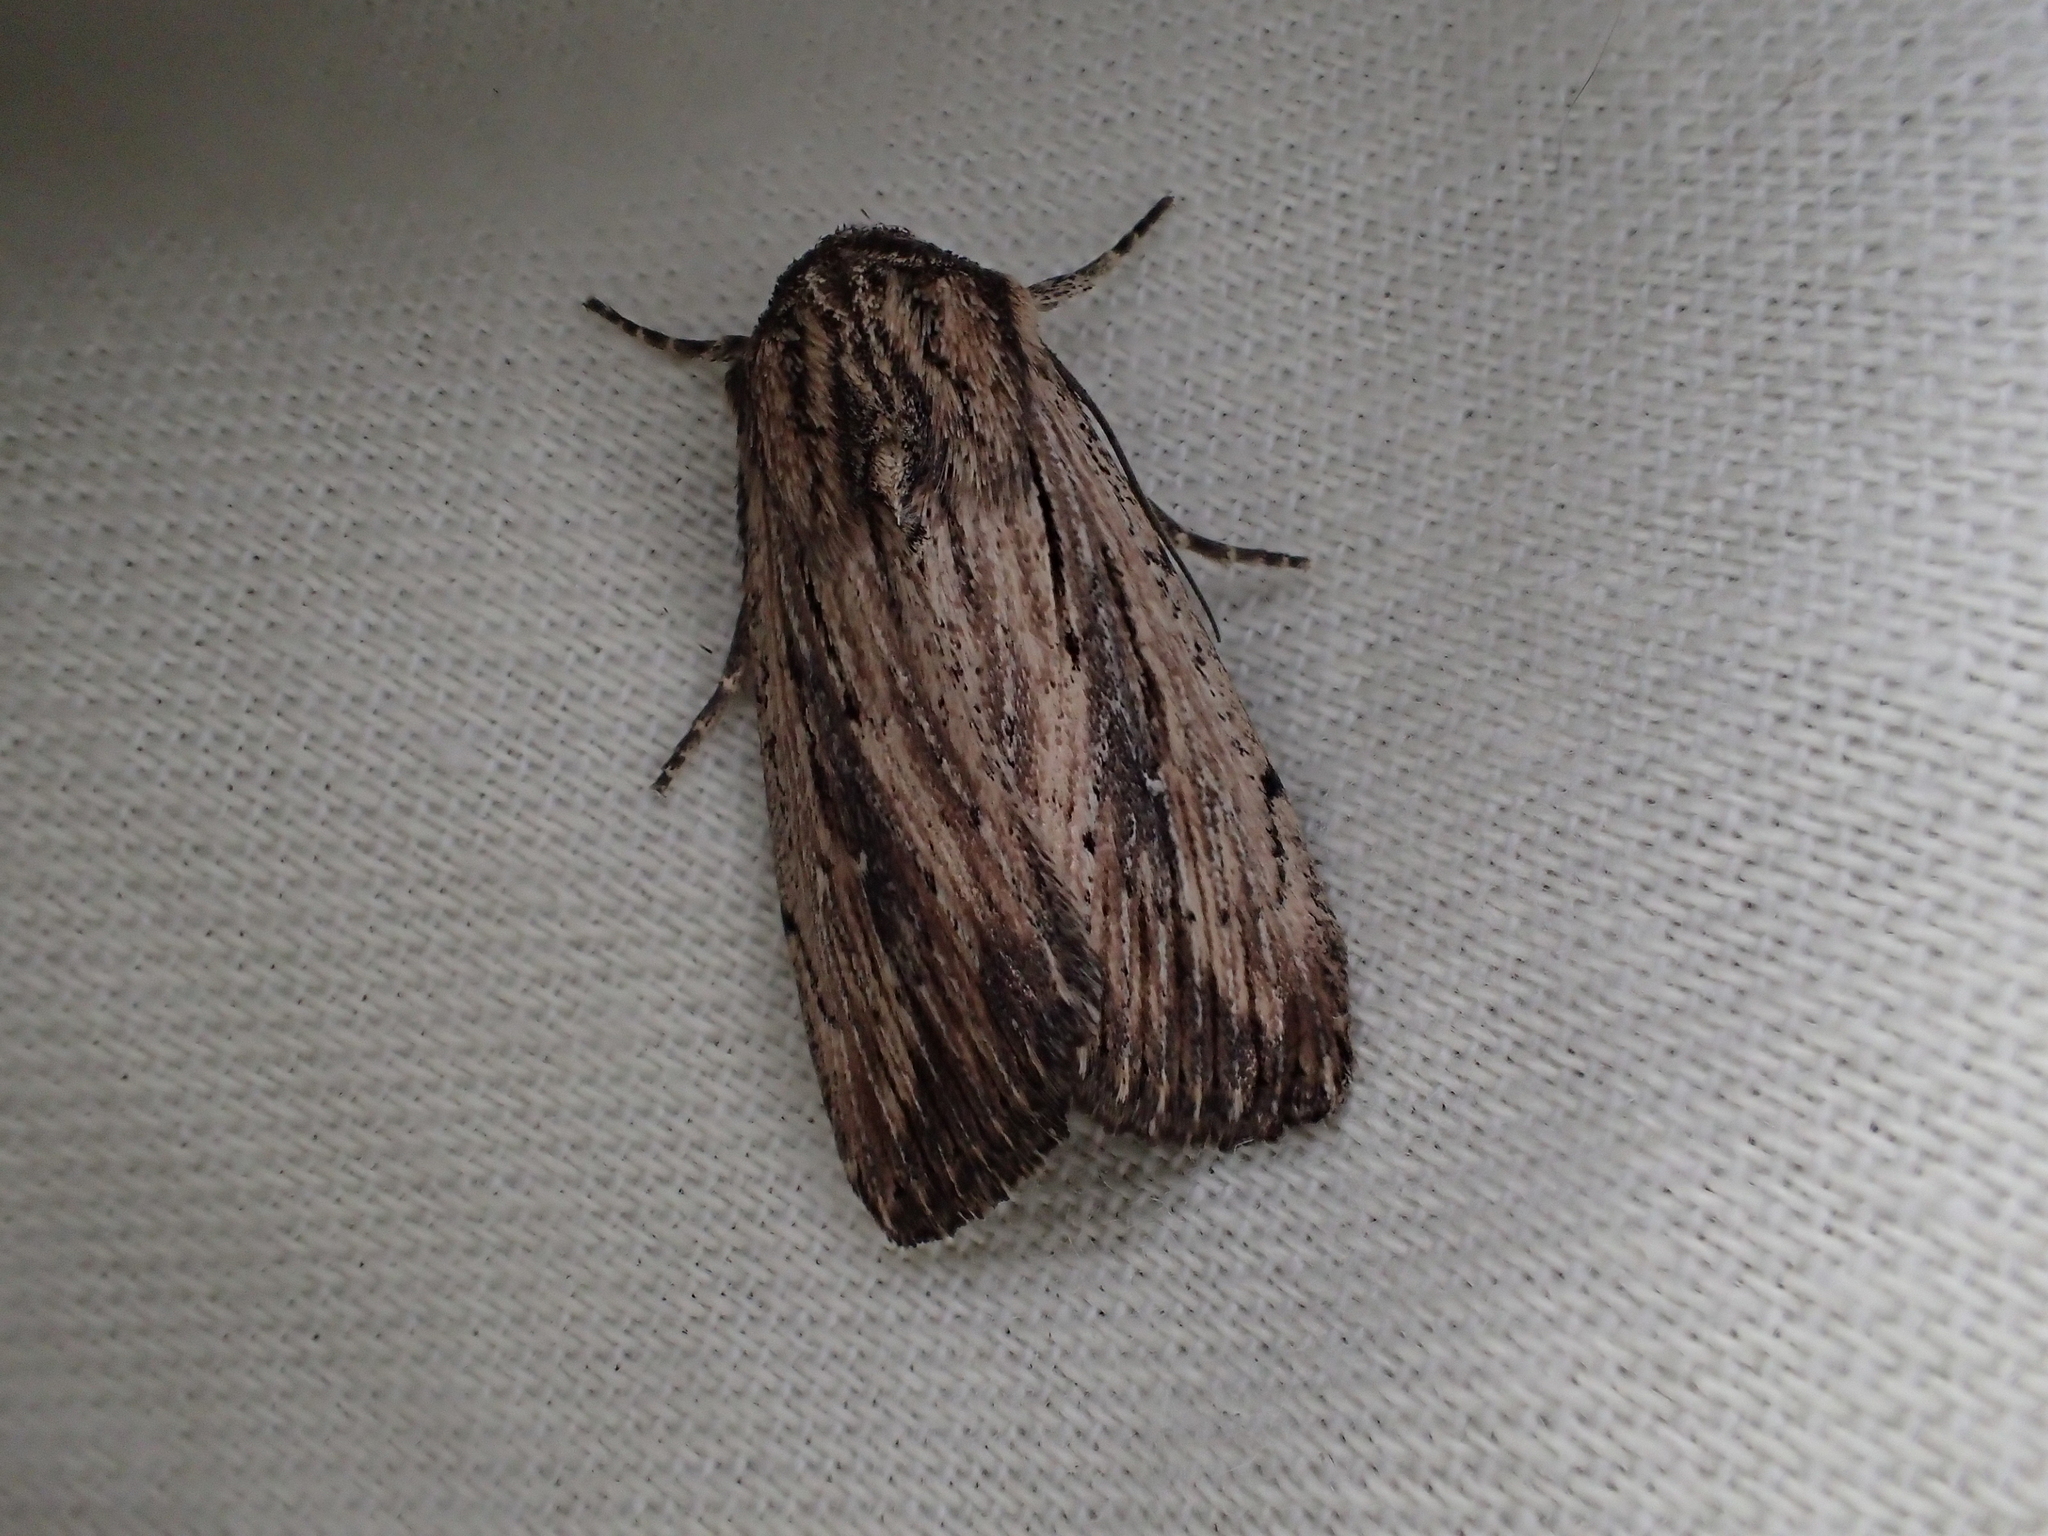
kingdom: Animalia
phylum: Arthropoda
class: Insecta
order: Lepidoptera
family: Noctuidae
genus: Leucania
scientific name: Leucania putrescens
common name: Devonshire wainscot
